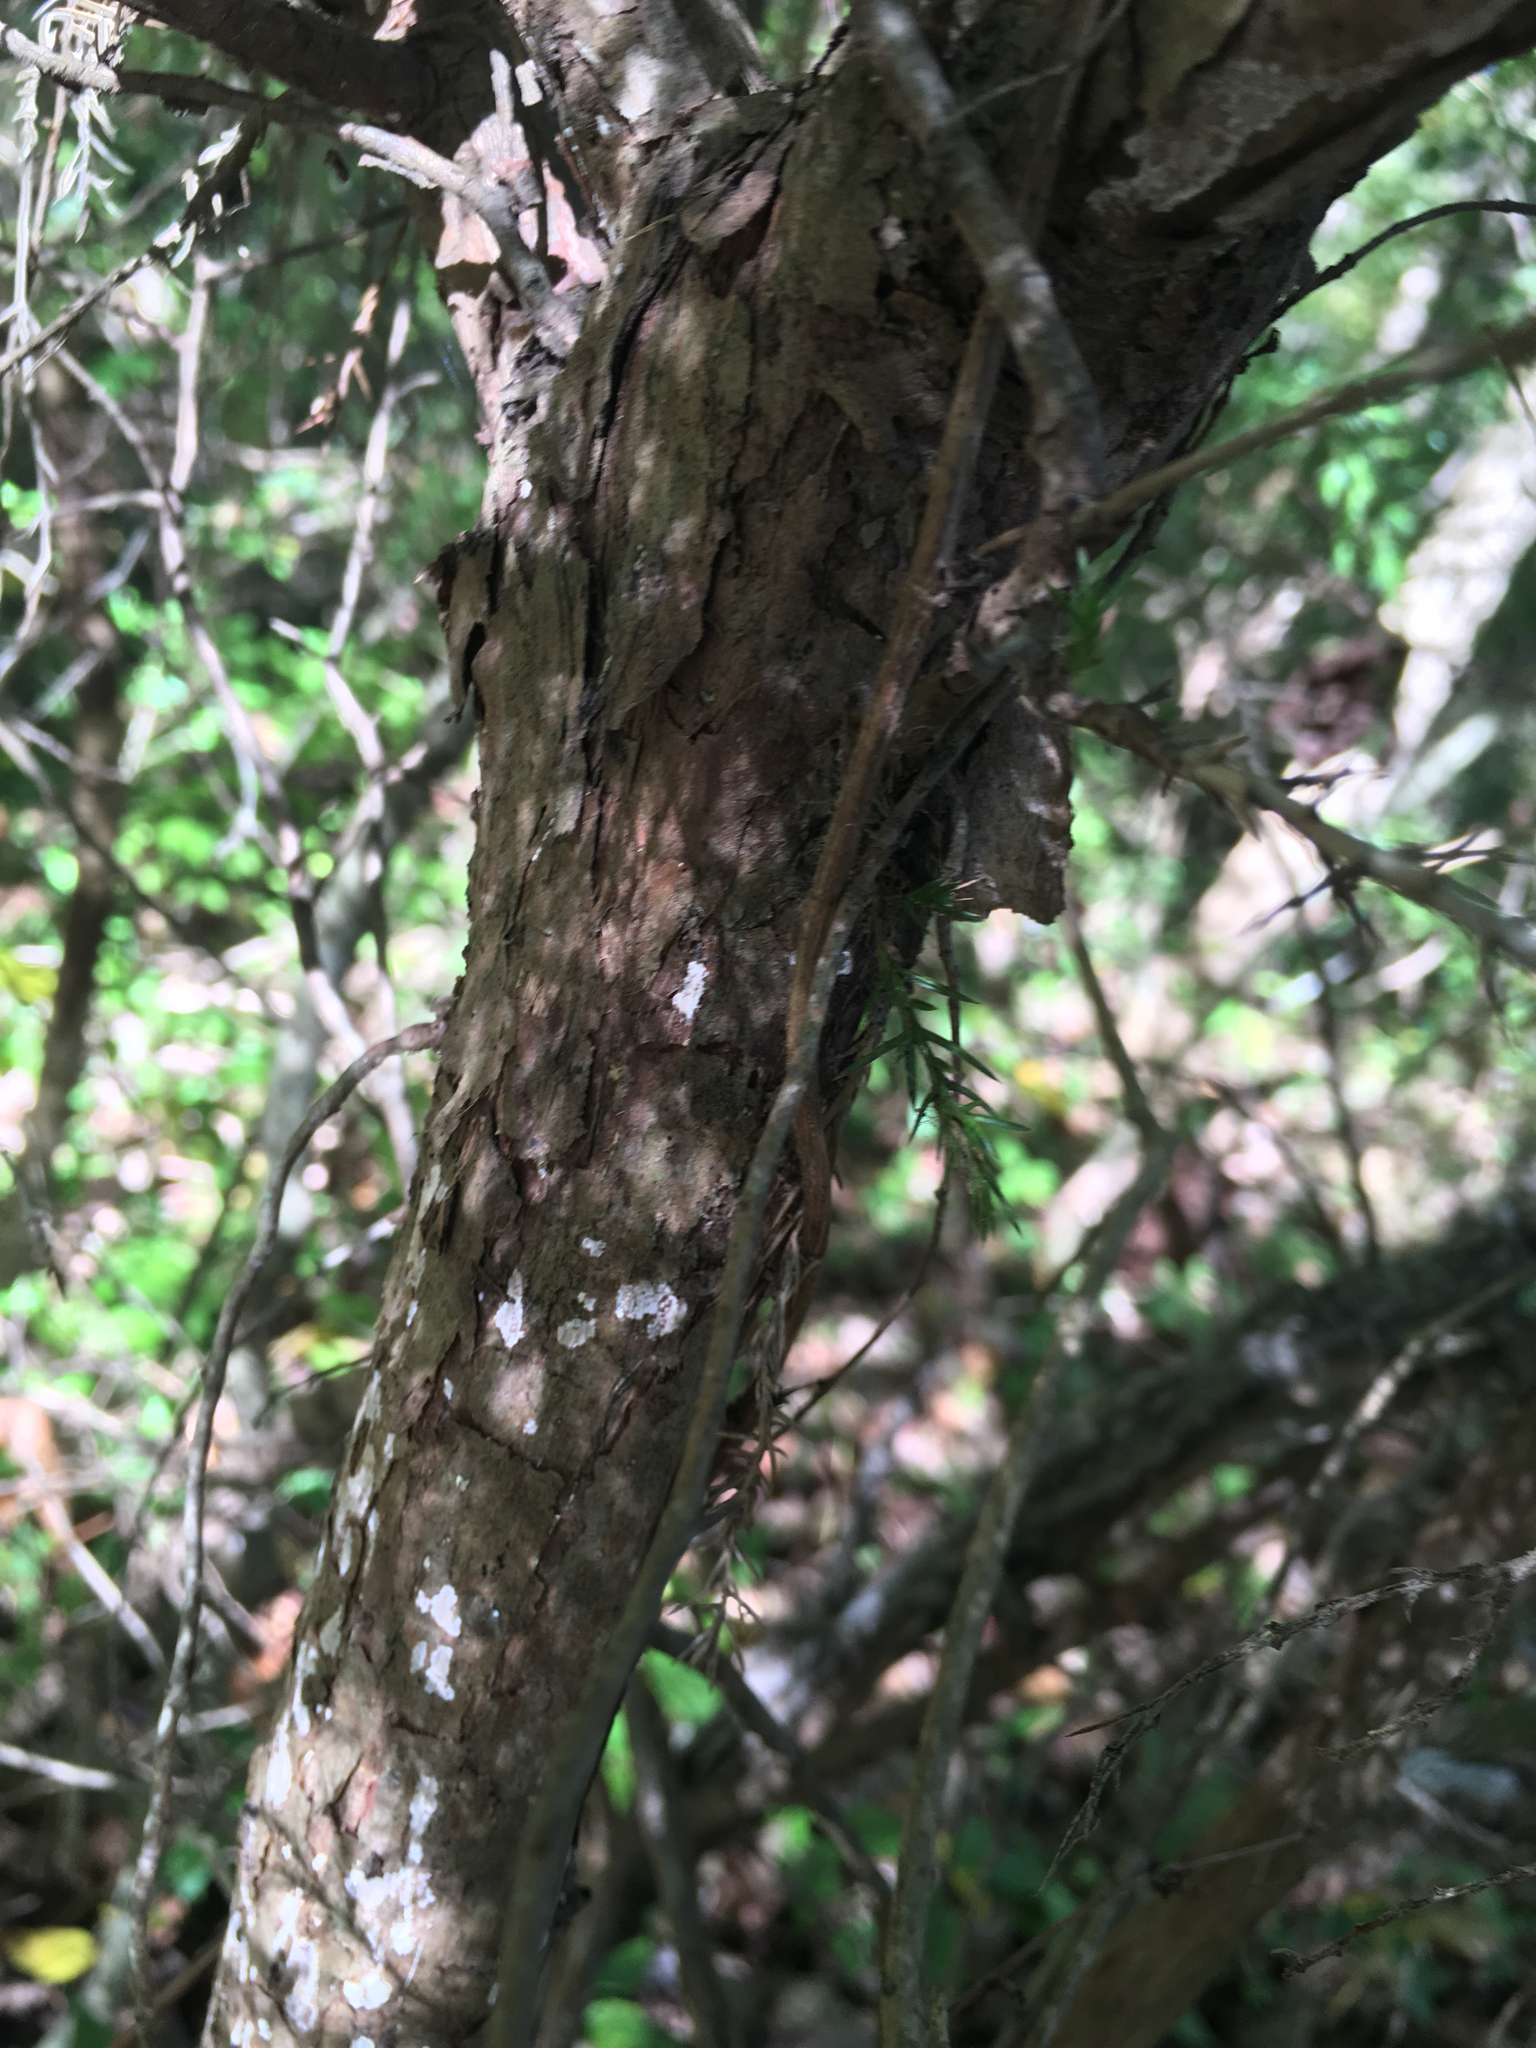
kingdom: Plantae
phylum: Tracheophyta
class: Pinopsida
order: Pinales
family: Cupressaceae
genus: Juniperus
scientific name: Juniperus virginiana
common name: Red juniper
